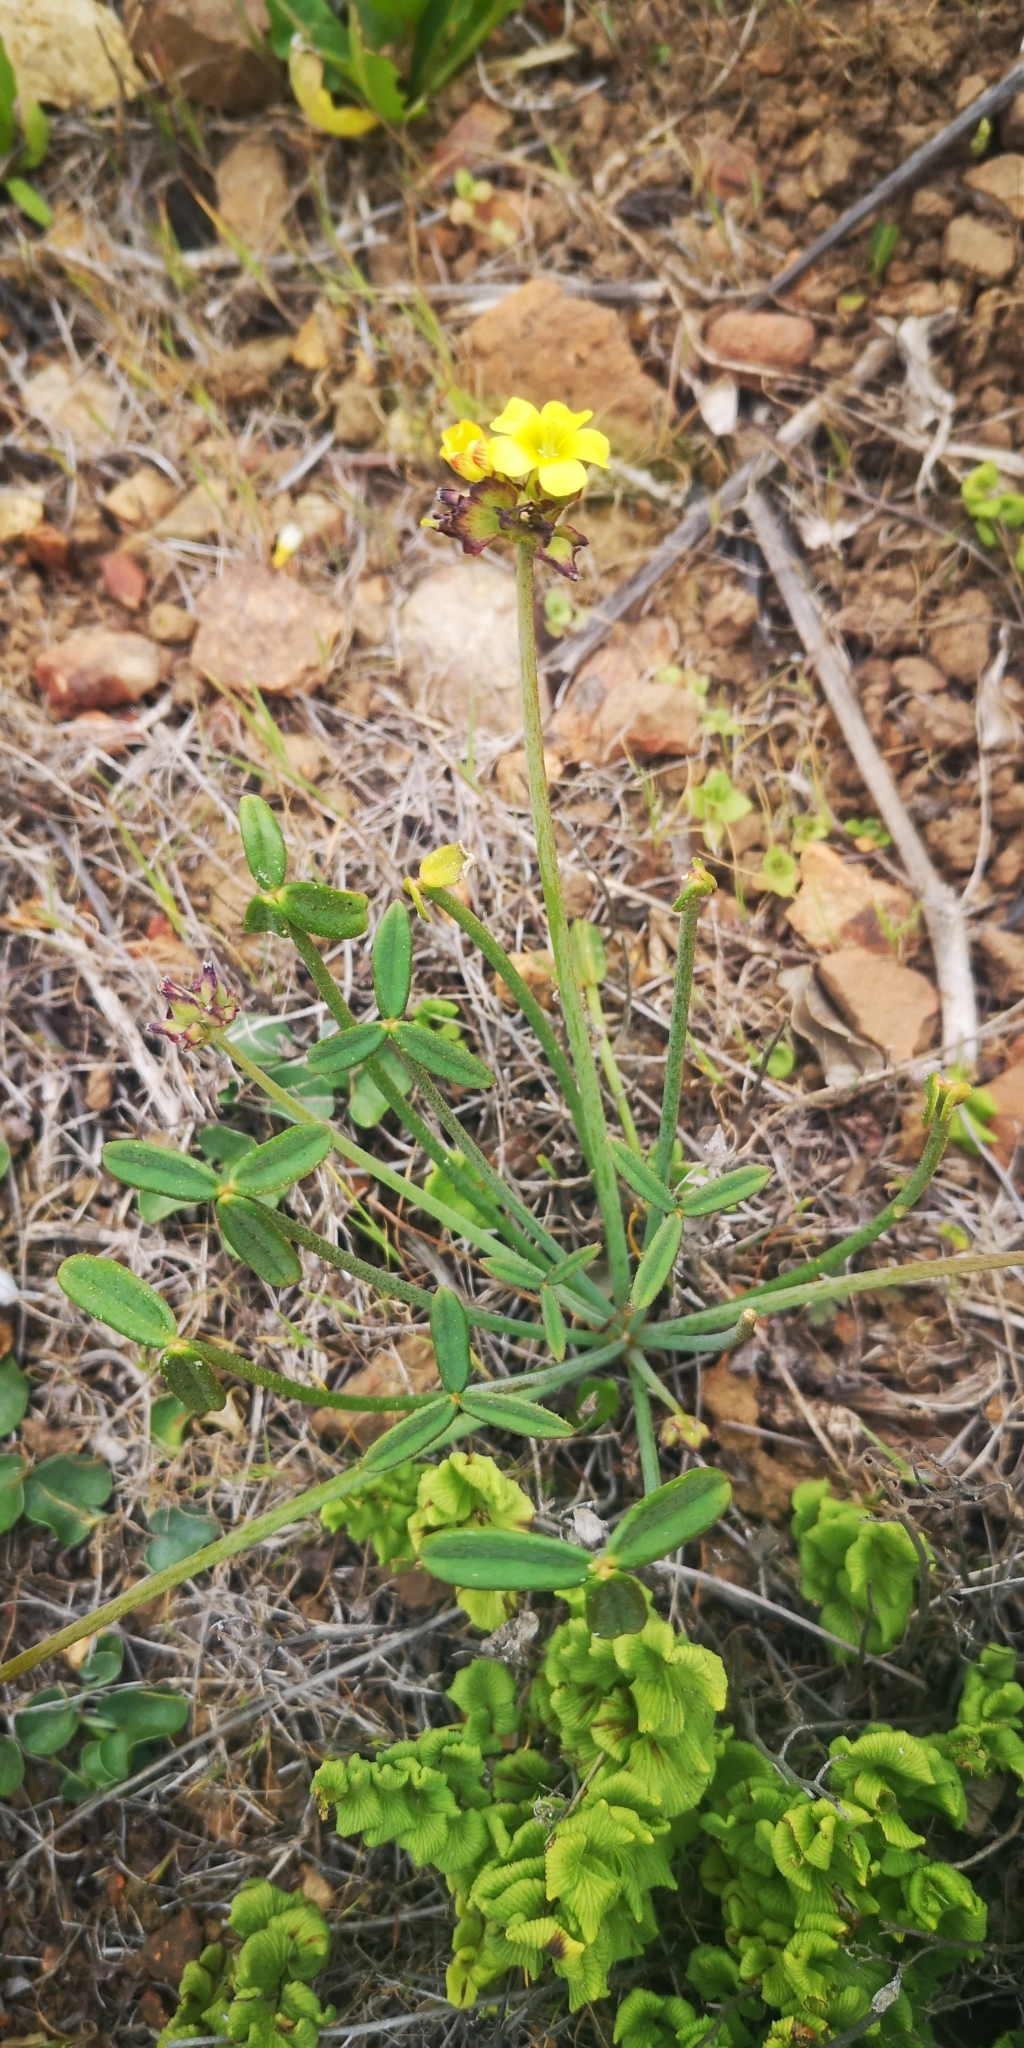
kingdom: Plantae
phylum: Tracheophyta
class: Magnoliopsida
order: Oxalidales
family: Oxalidaceae
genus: Oxalis
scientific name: Oxalis tortuosa
